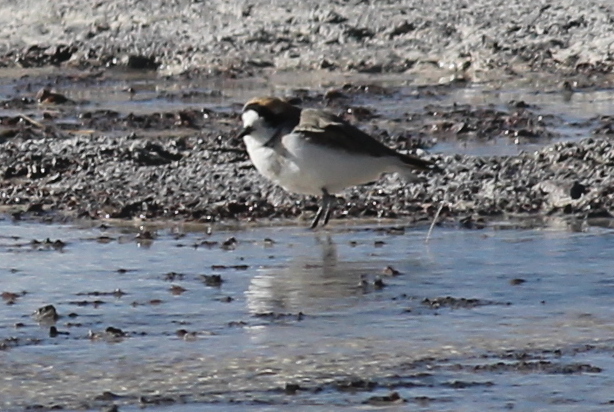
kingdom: Animalia
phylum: Chordata
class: Aves
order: Charadriiformes
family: Charadriidae
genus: Anarhynchus
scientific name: Anarhynchus
